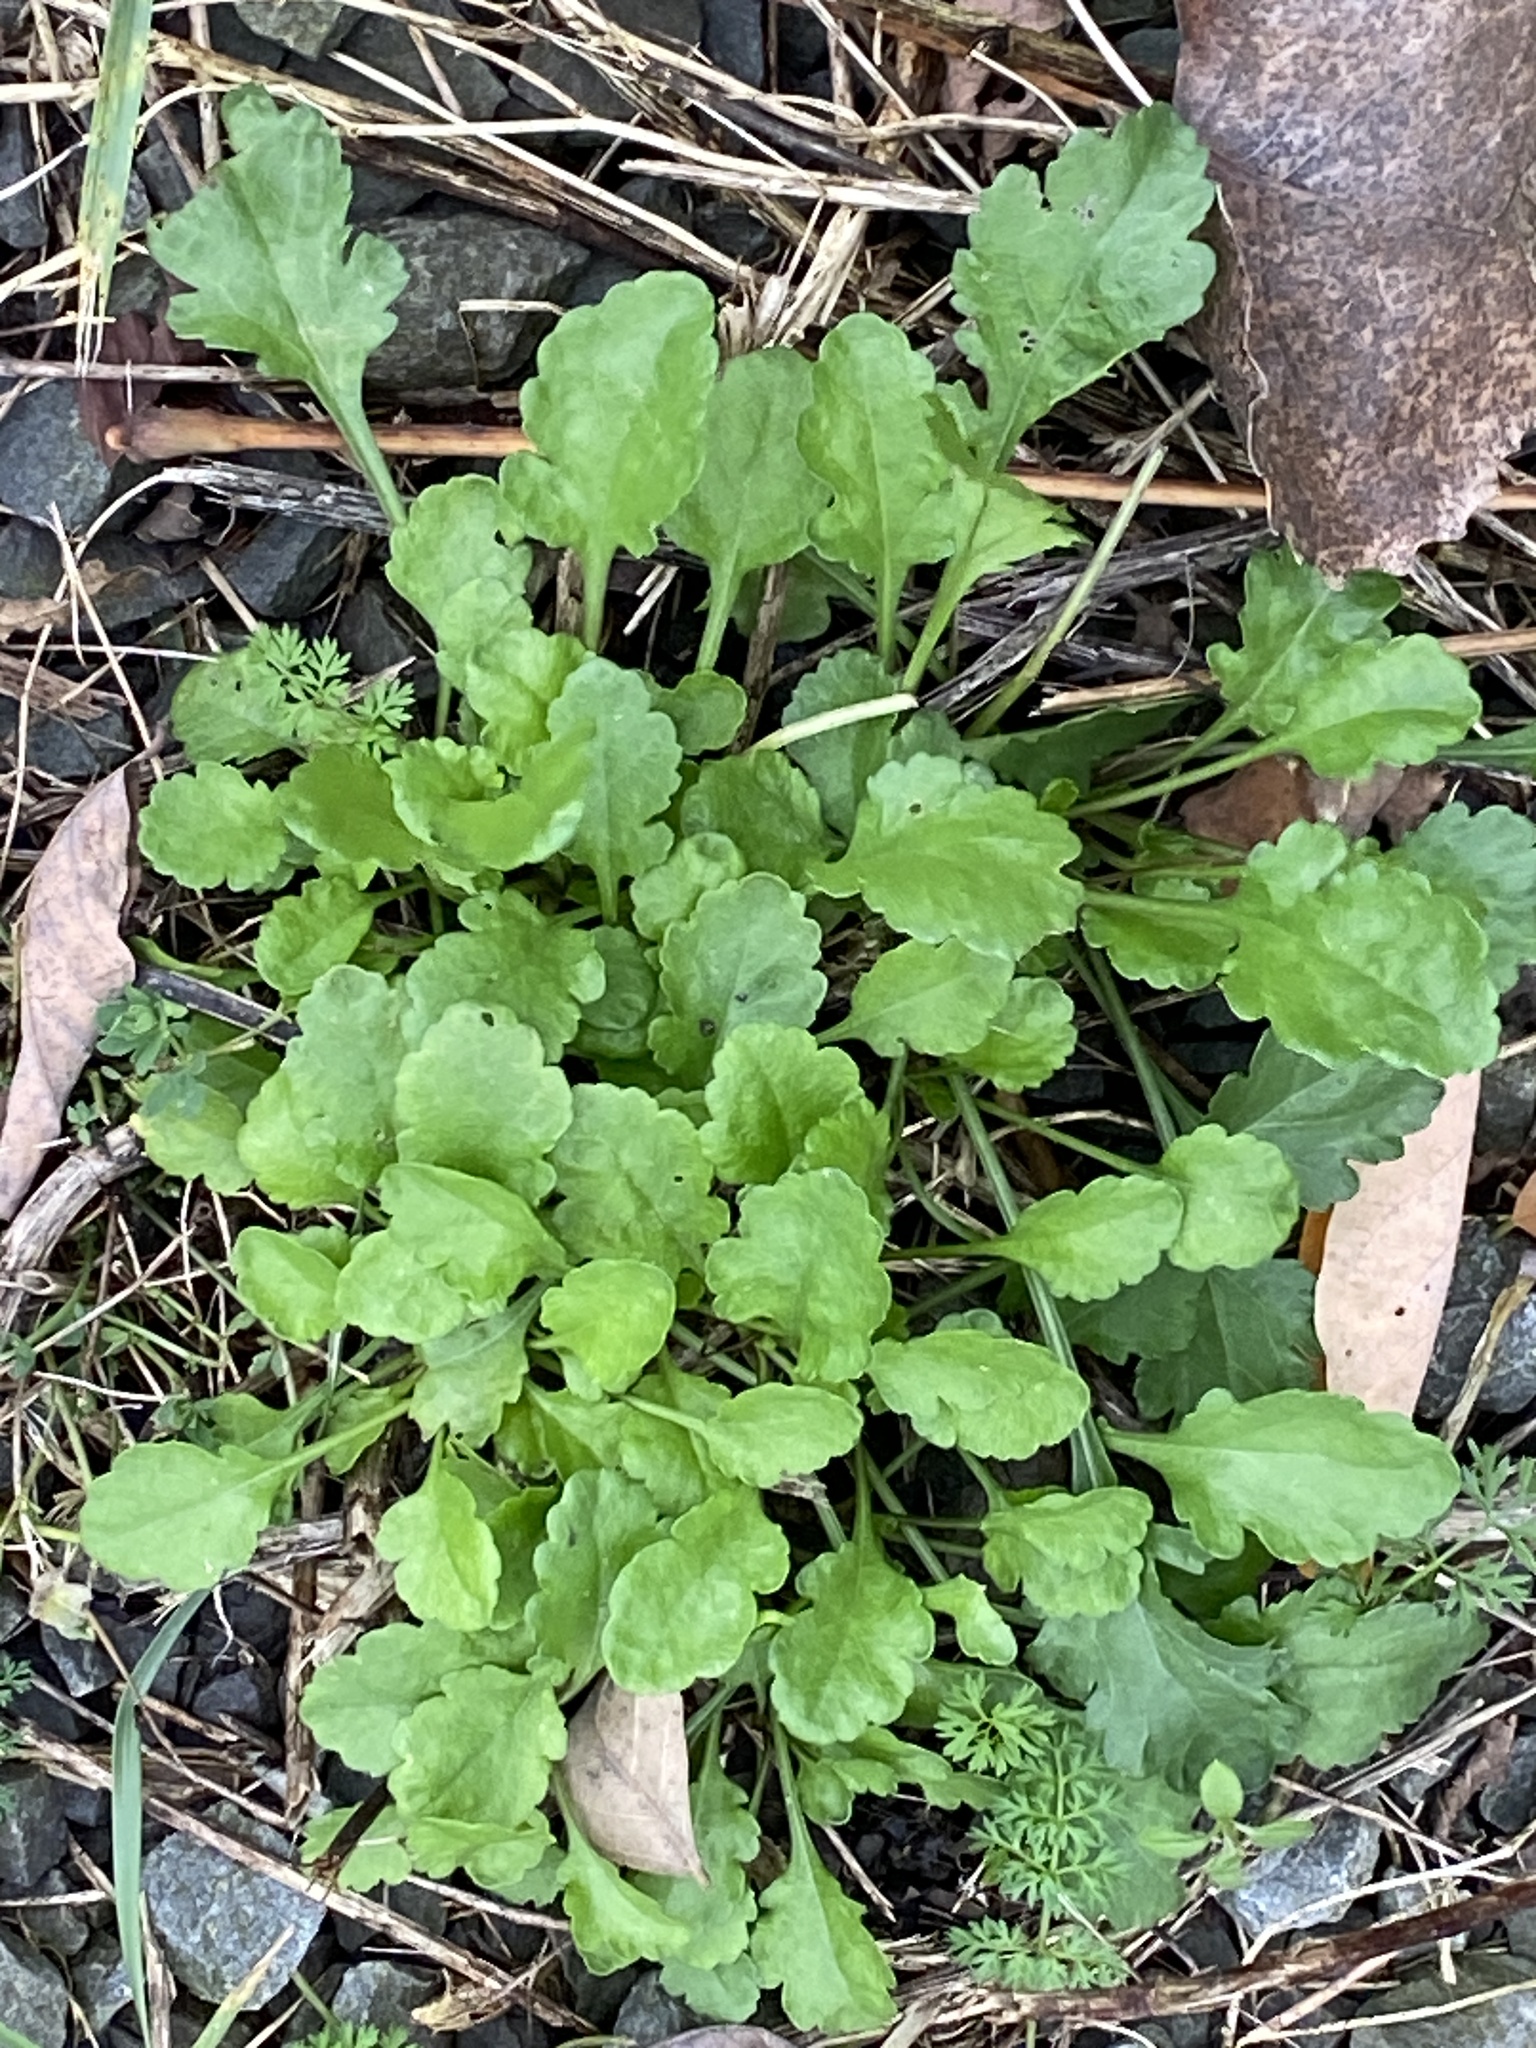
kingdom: Plantae
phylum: Tracheophyta
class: Magnoliopsida
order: Asterales
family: Asteraceae
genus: Leucanthemum
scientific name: Leucanthemum vulgare
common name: Oxeye daisy
